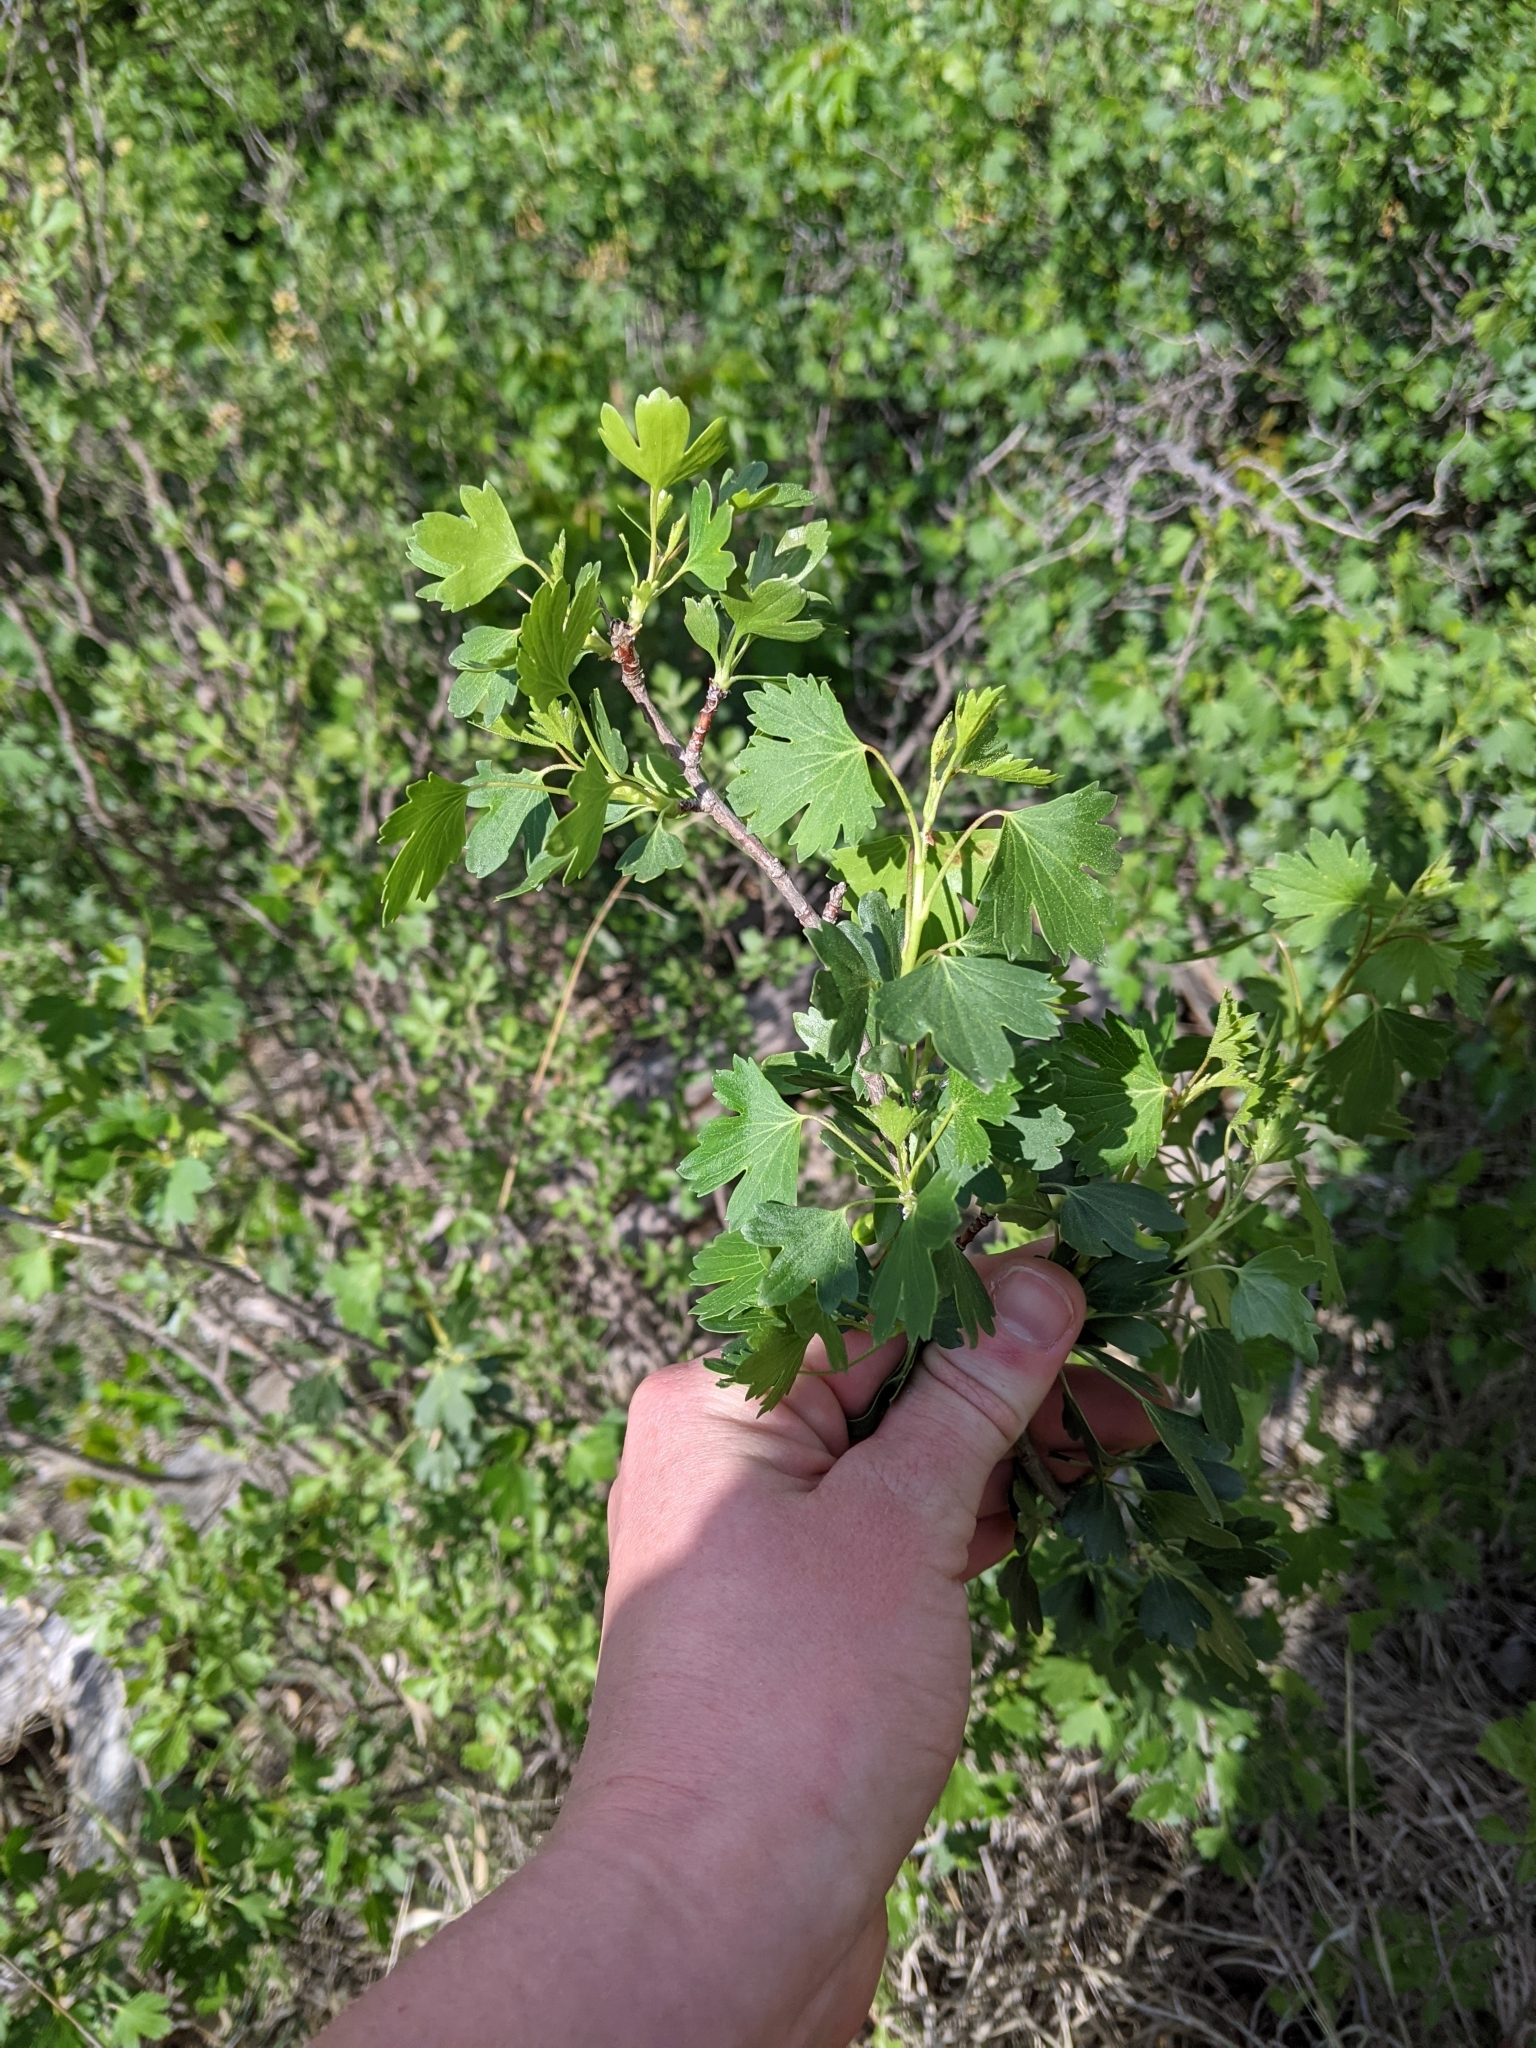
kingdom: Plantae
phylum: Tracheophyta
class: Magnoliopsida
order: Saxifragales
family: Grossulariaceae
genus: Ribes
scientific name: Ribes aureum
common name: Golden currant
